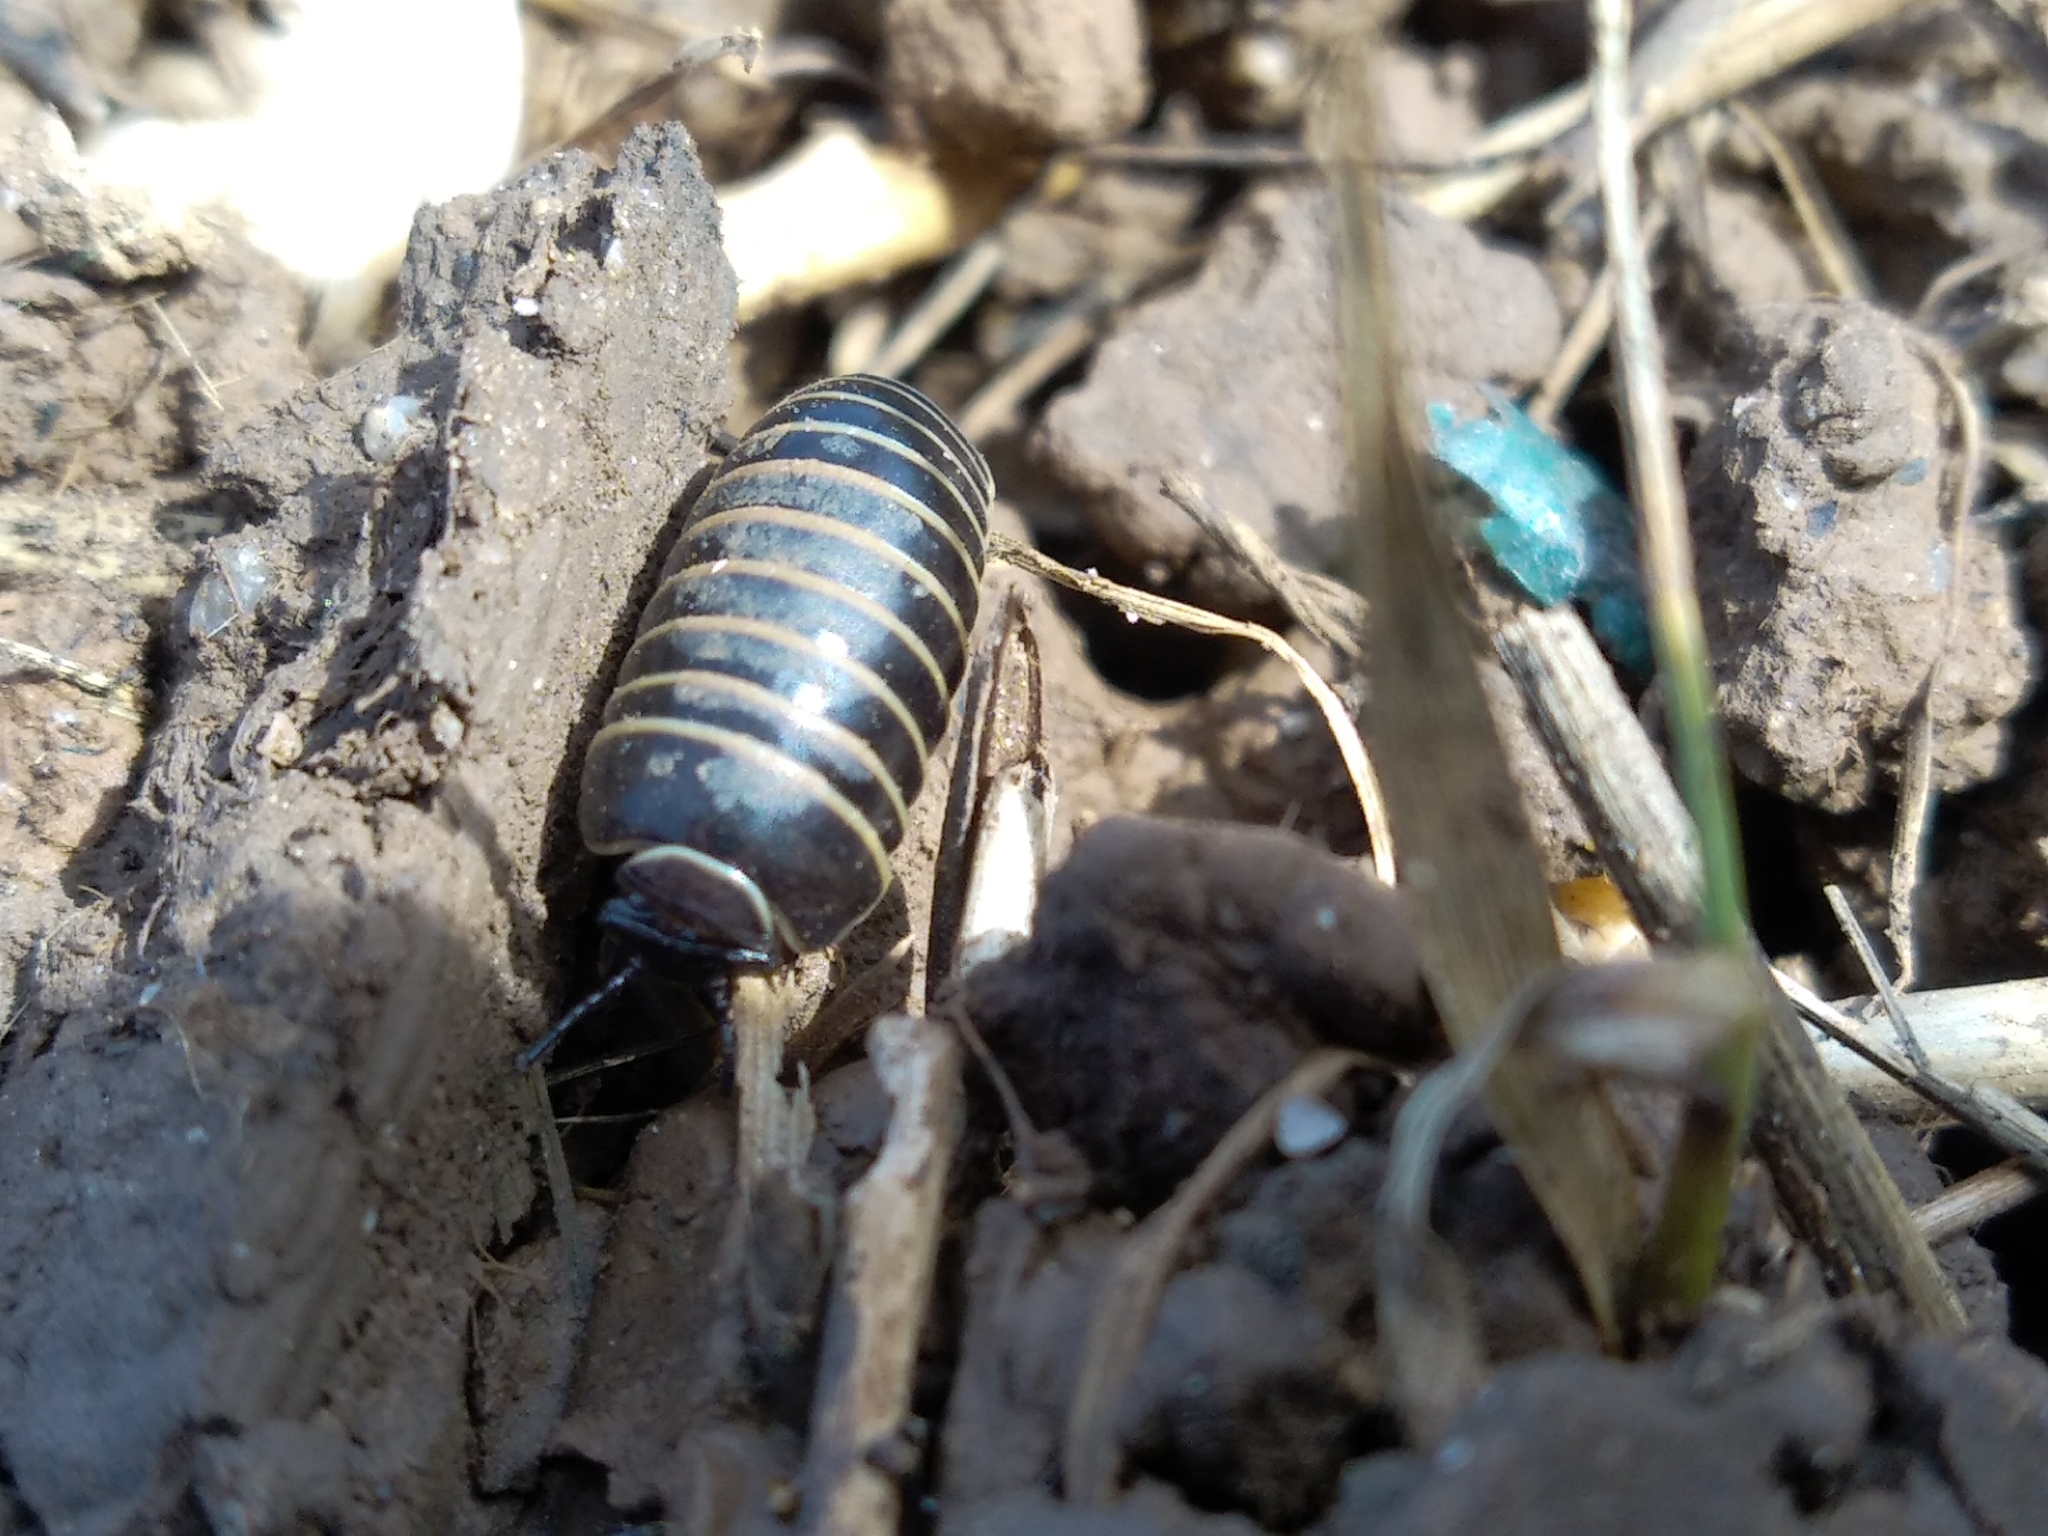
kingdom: Animalia
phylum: Arthropoda
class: Diplopoda
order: Glomerida
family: Glomeridae
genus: Glomeris
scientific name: Glomeris marginata
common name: Bordered pill millipede
